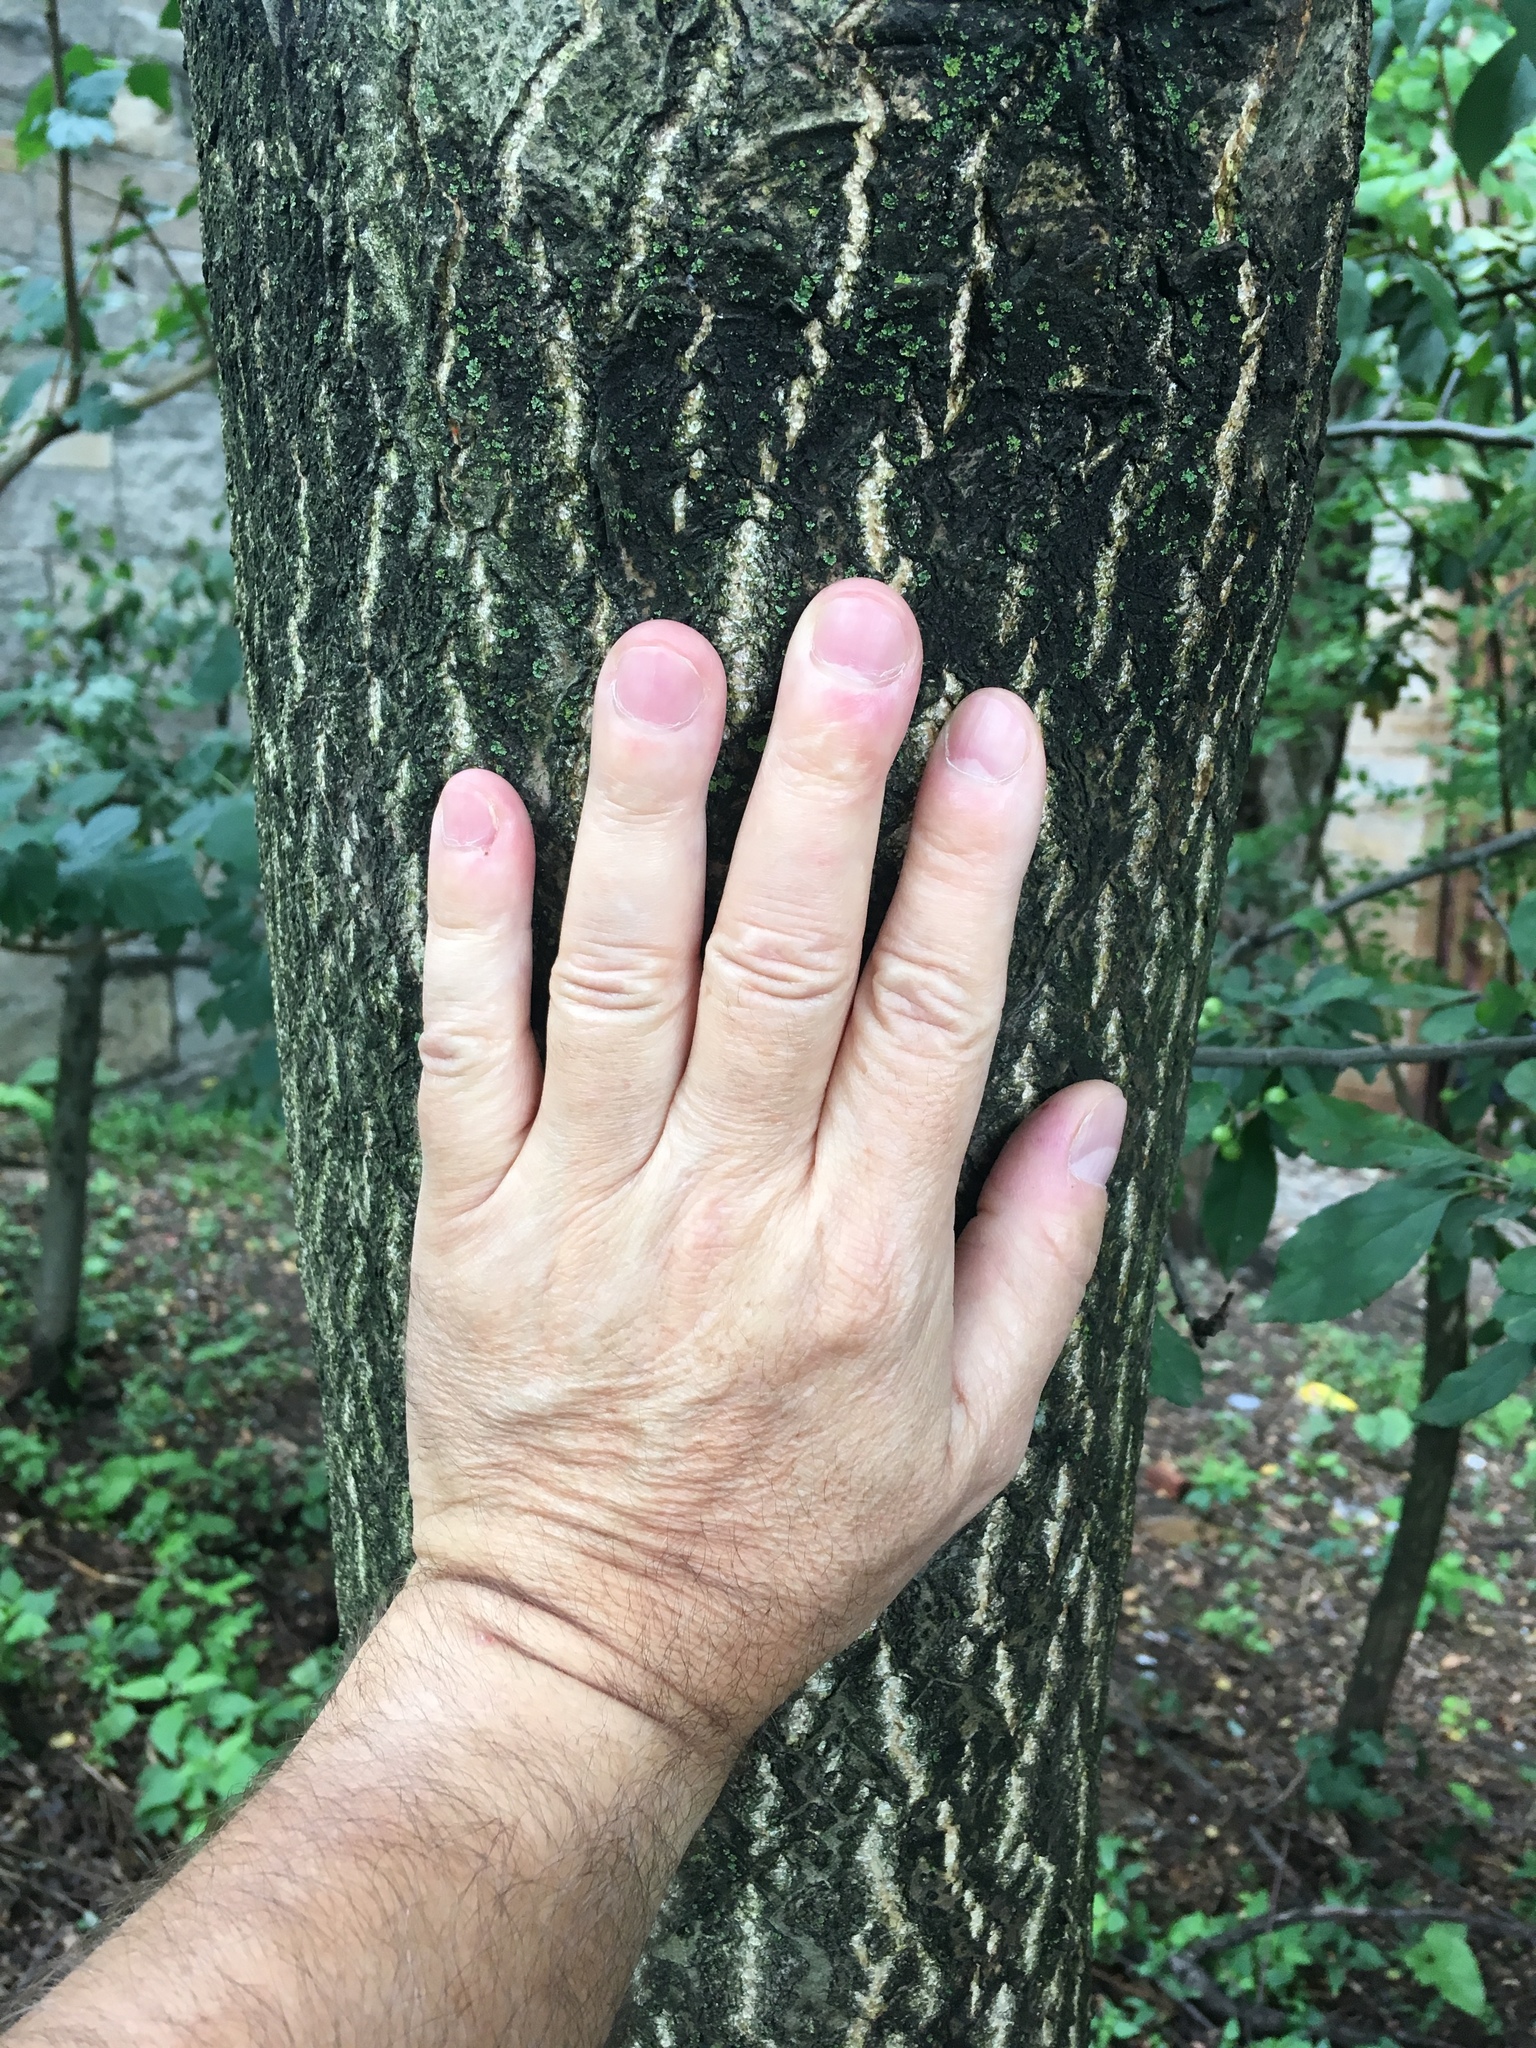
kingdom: Plantae
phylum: Tracheophyta
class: Magnoliopsida
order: Sapindales
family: Simaroubaceae
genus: Ailanthus
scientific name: Ailanthus altissima
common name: Tree-of-heaven
